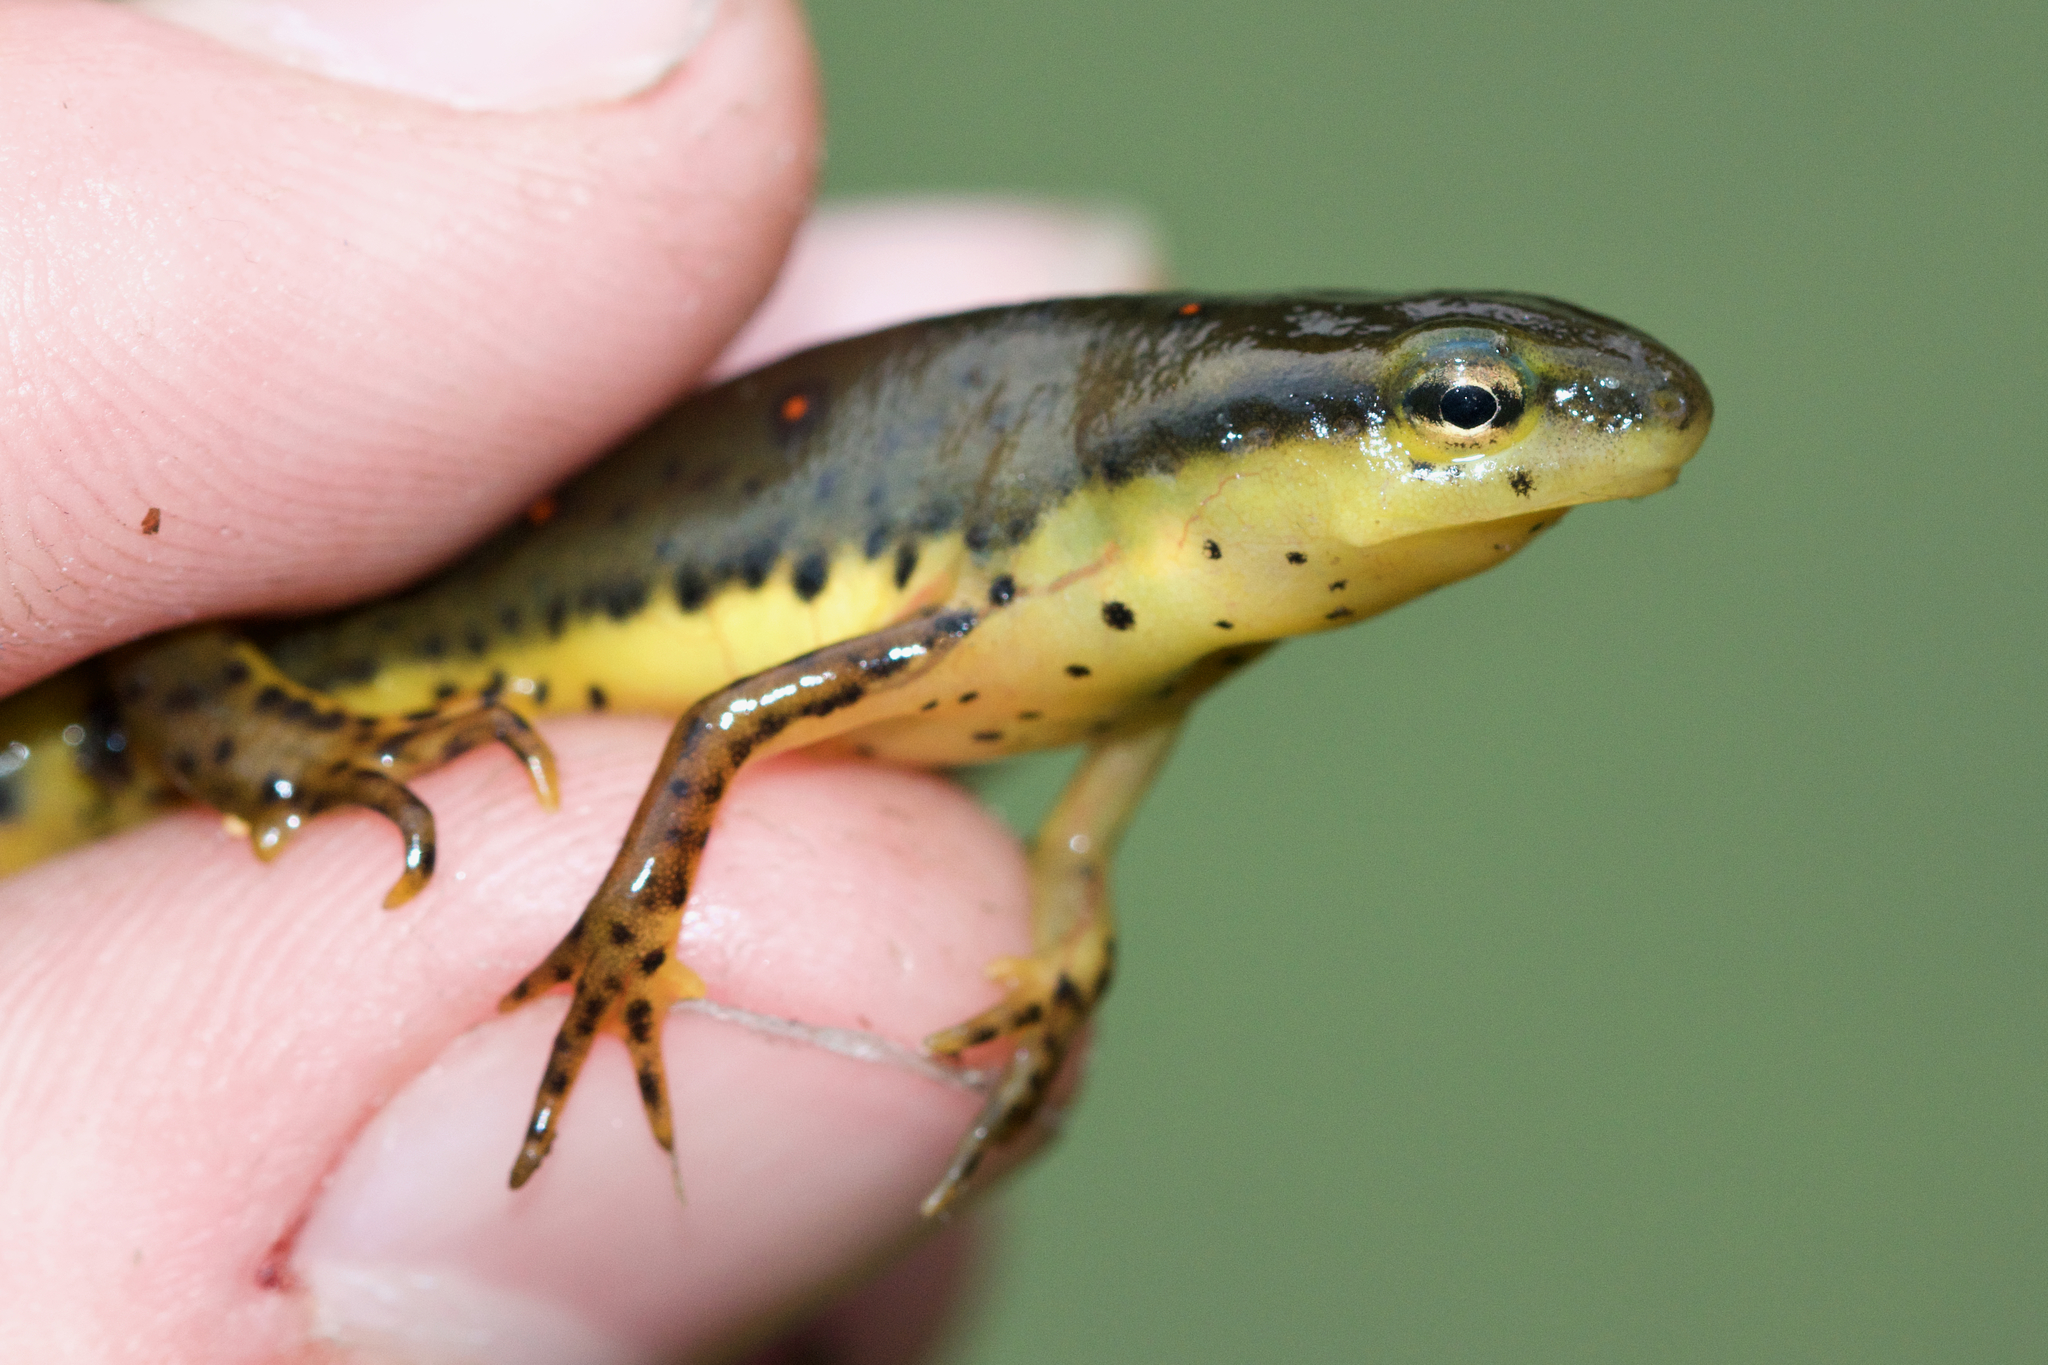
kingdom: Animalia
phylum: Chordata
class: Amphibia
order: Caudata
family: Salamandridae
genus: Notophthalmus
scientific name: Notophthalmus viridescens
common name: Eastern newt
